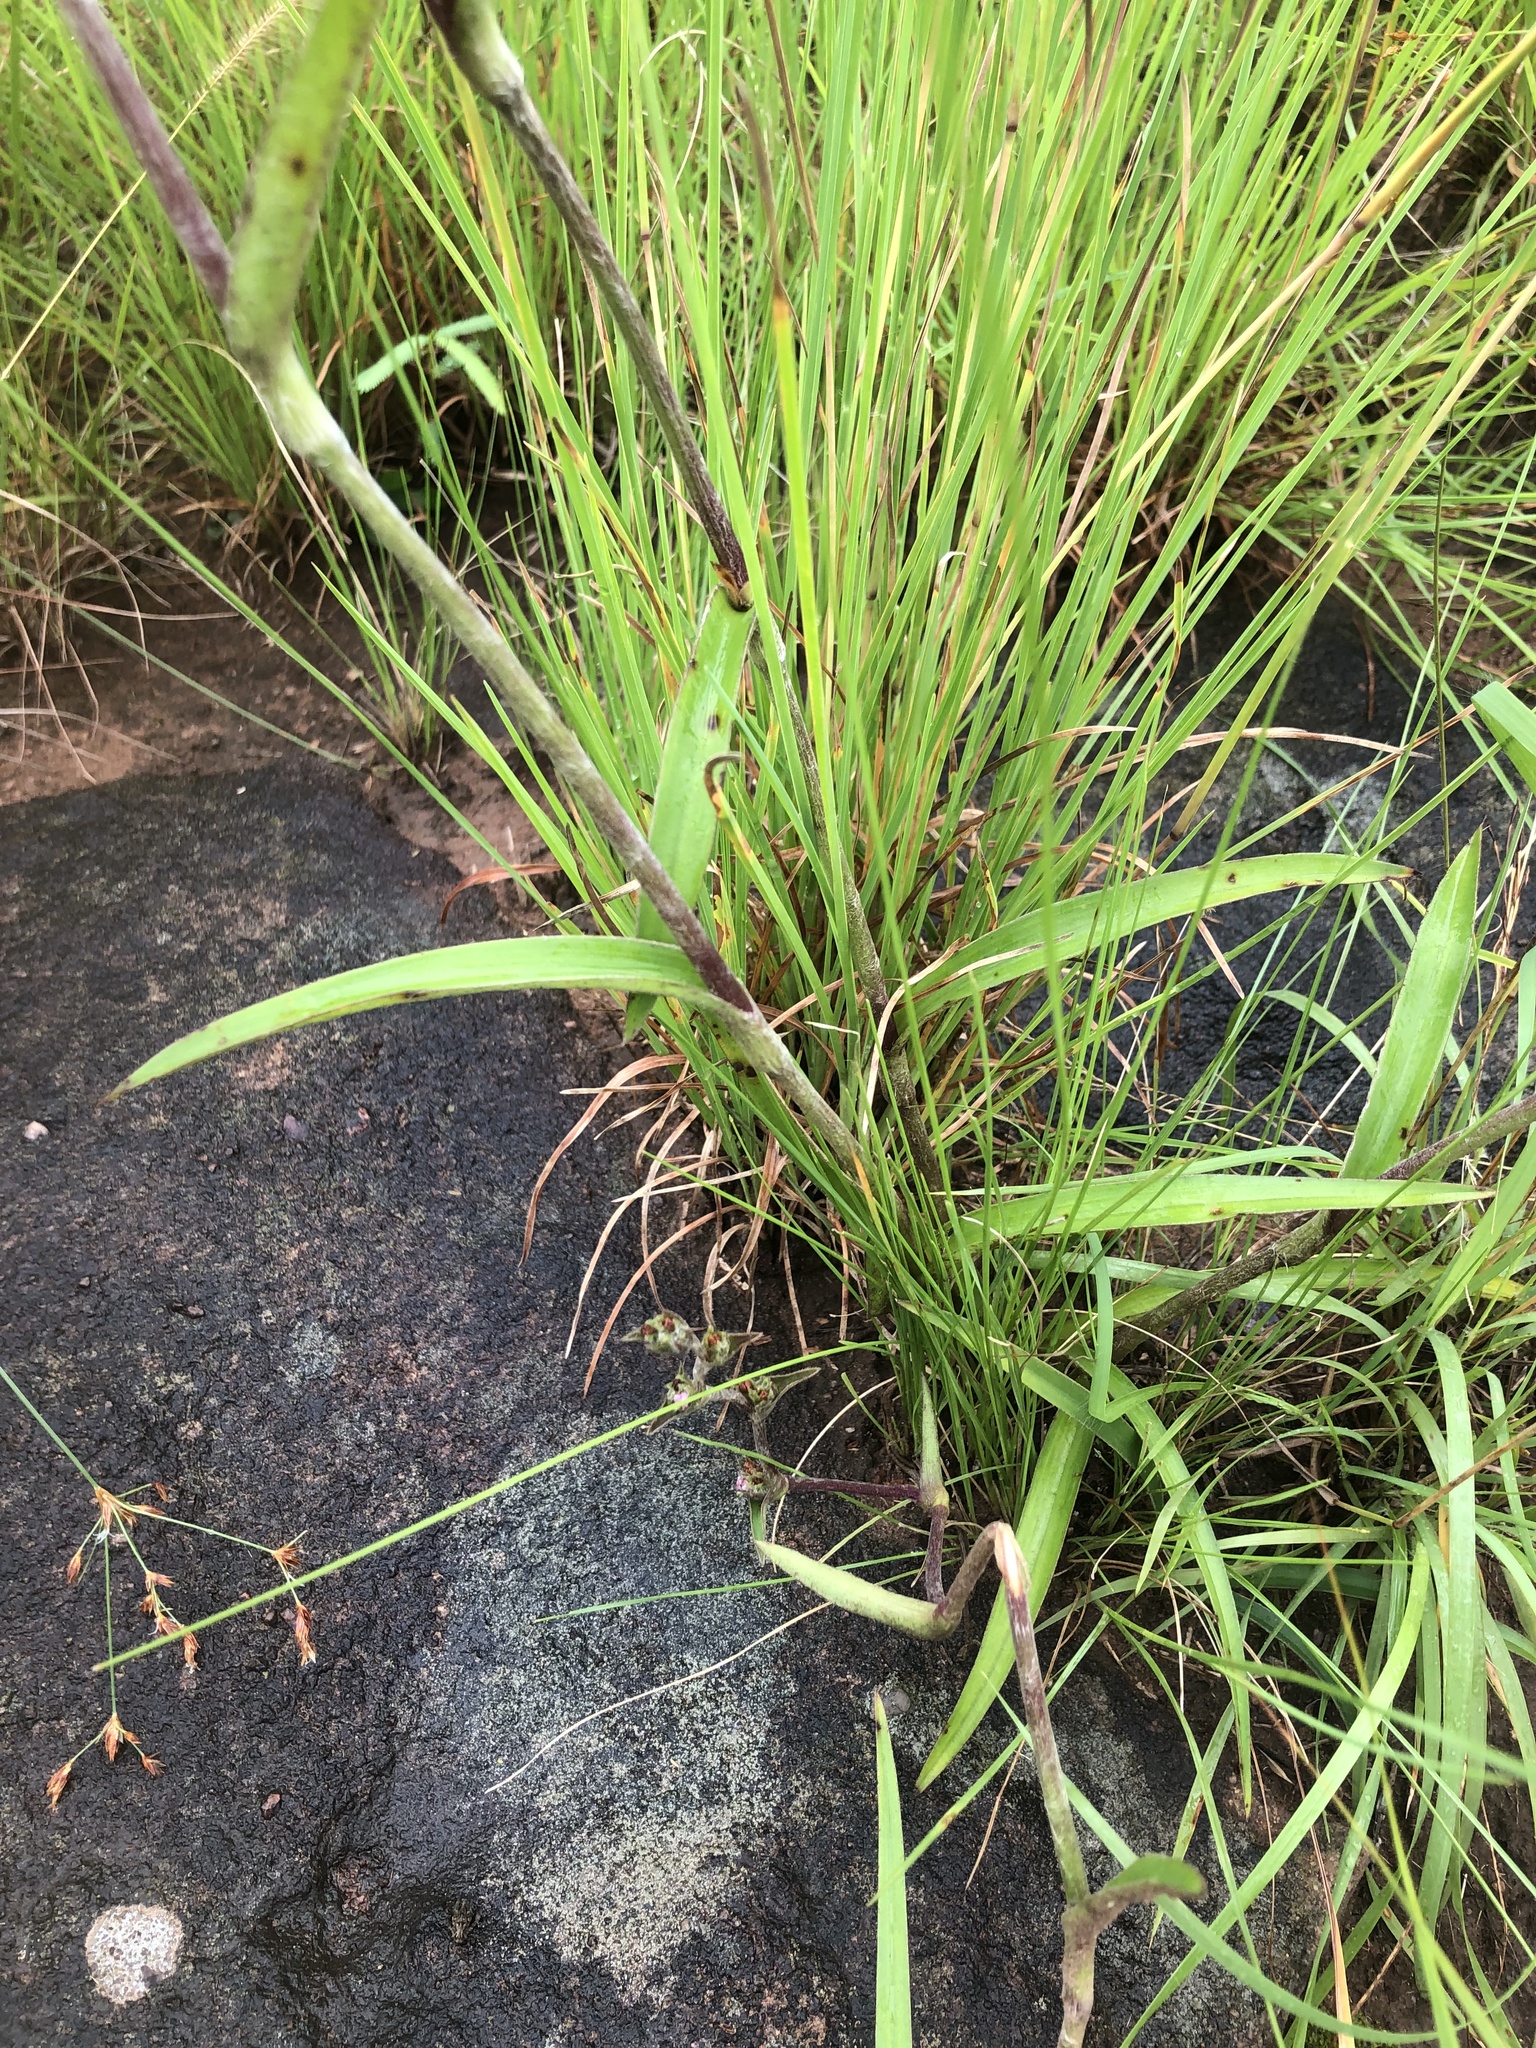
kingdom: Plantae
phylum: Tracheophyta
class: Liliopsida
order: Commelinales
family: Commelinaceae
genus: Cyanotis
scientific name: Cyanotis speciosa
